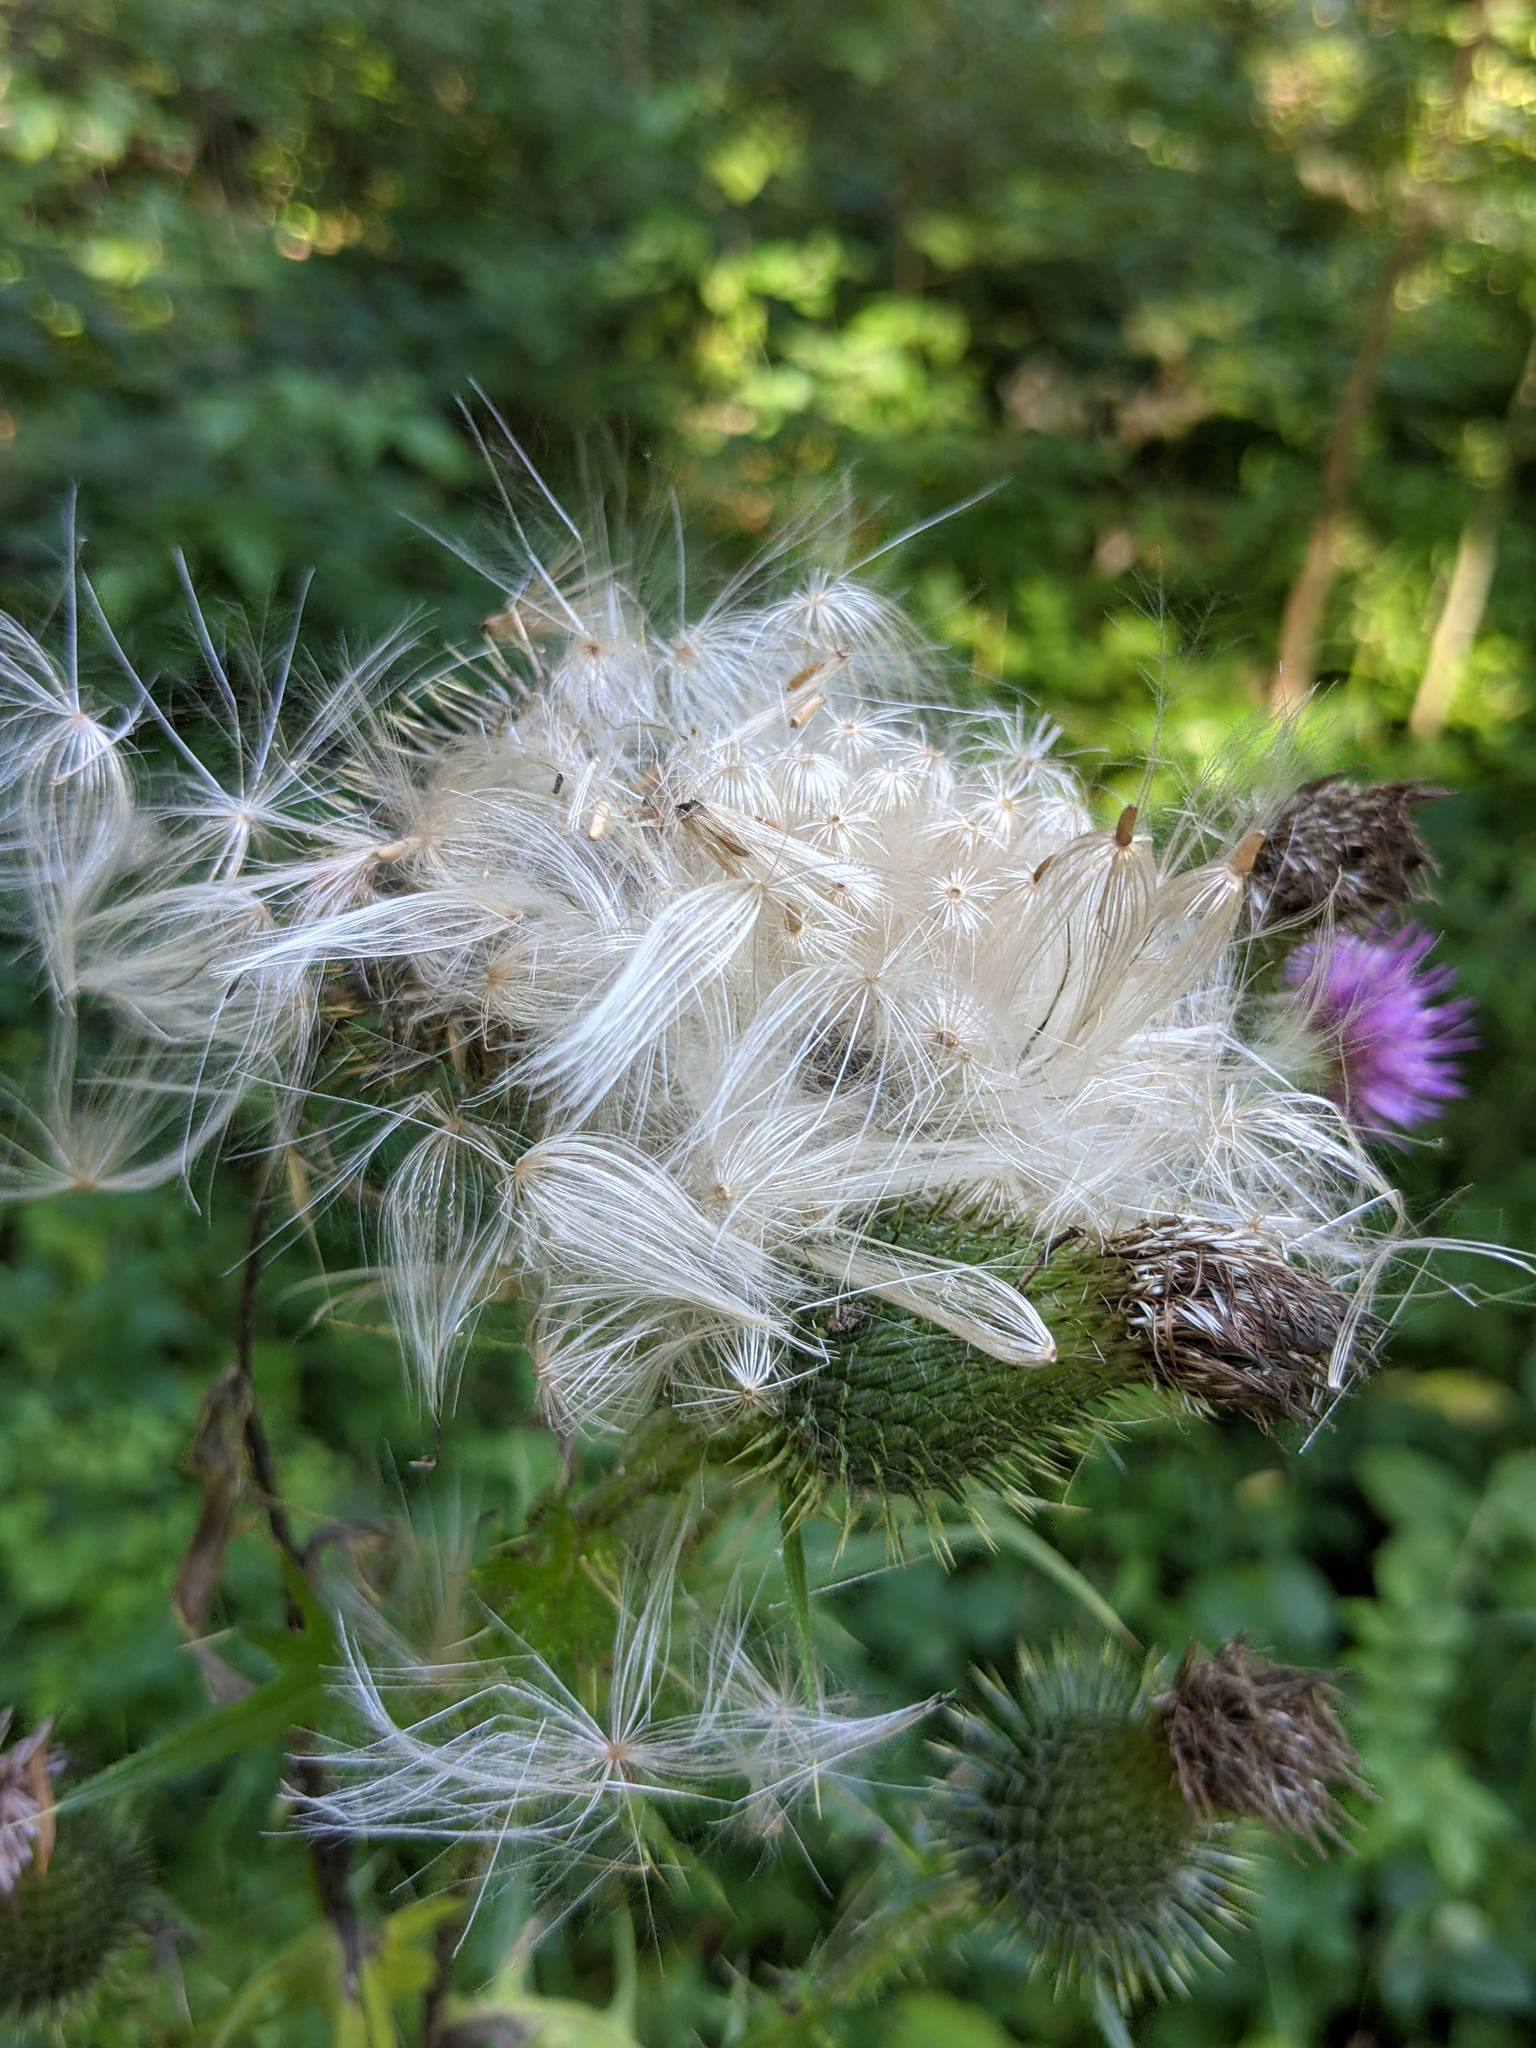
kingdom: Plantae
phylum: Tracheophyta
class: Magnoliopsida
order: Asterales
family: Asteraceae
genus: Cirsium
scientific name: Cirsium vulgare
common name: Bull thistle
